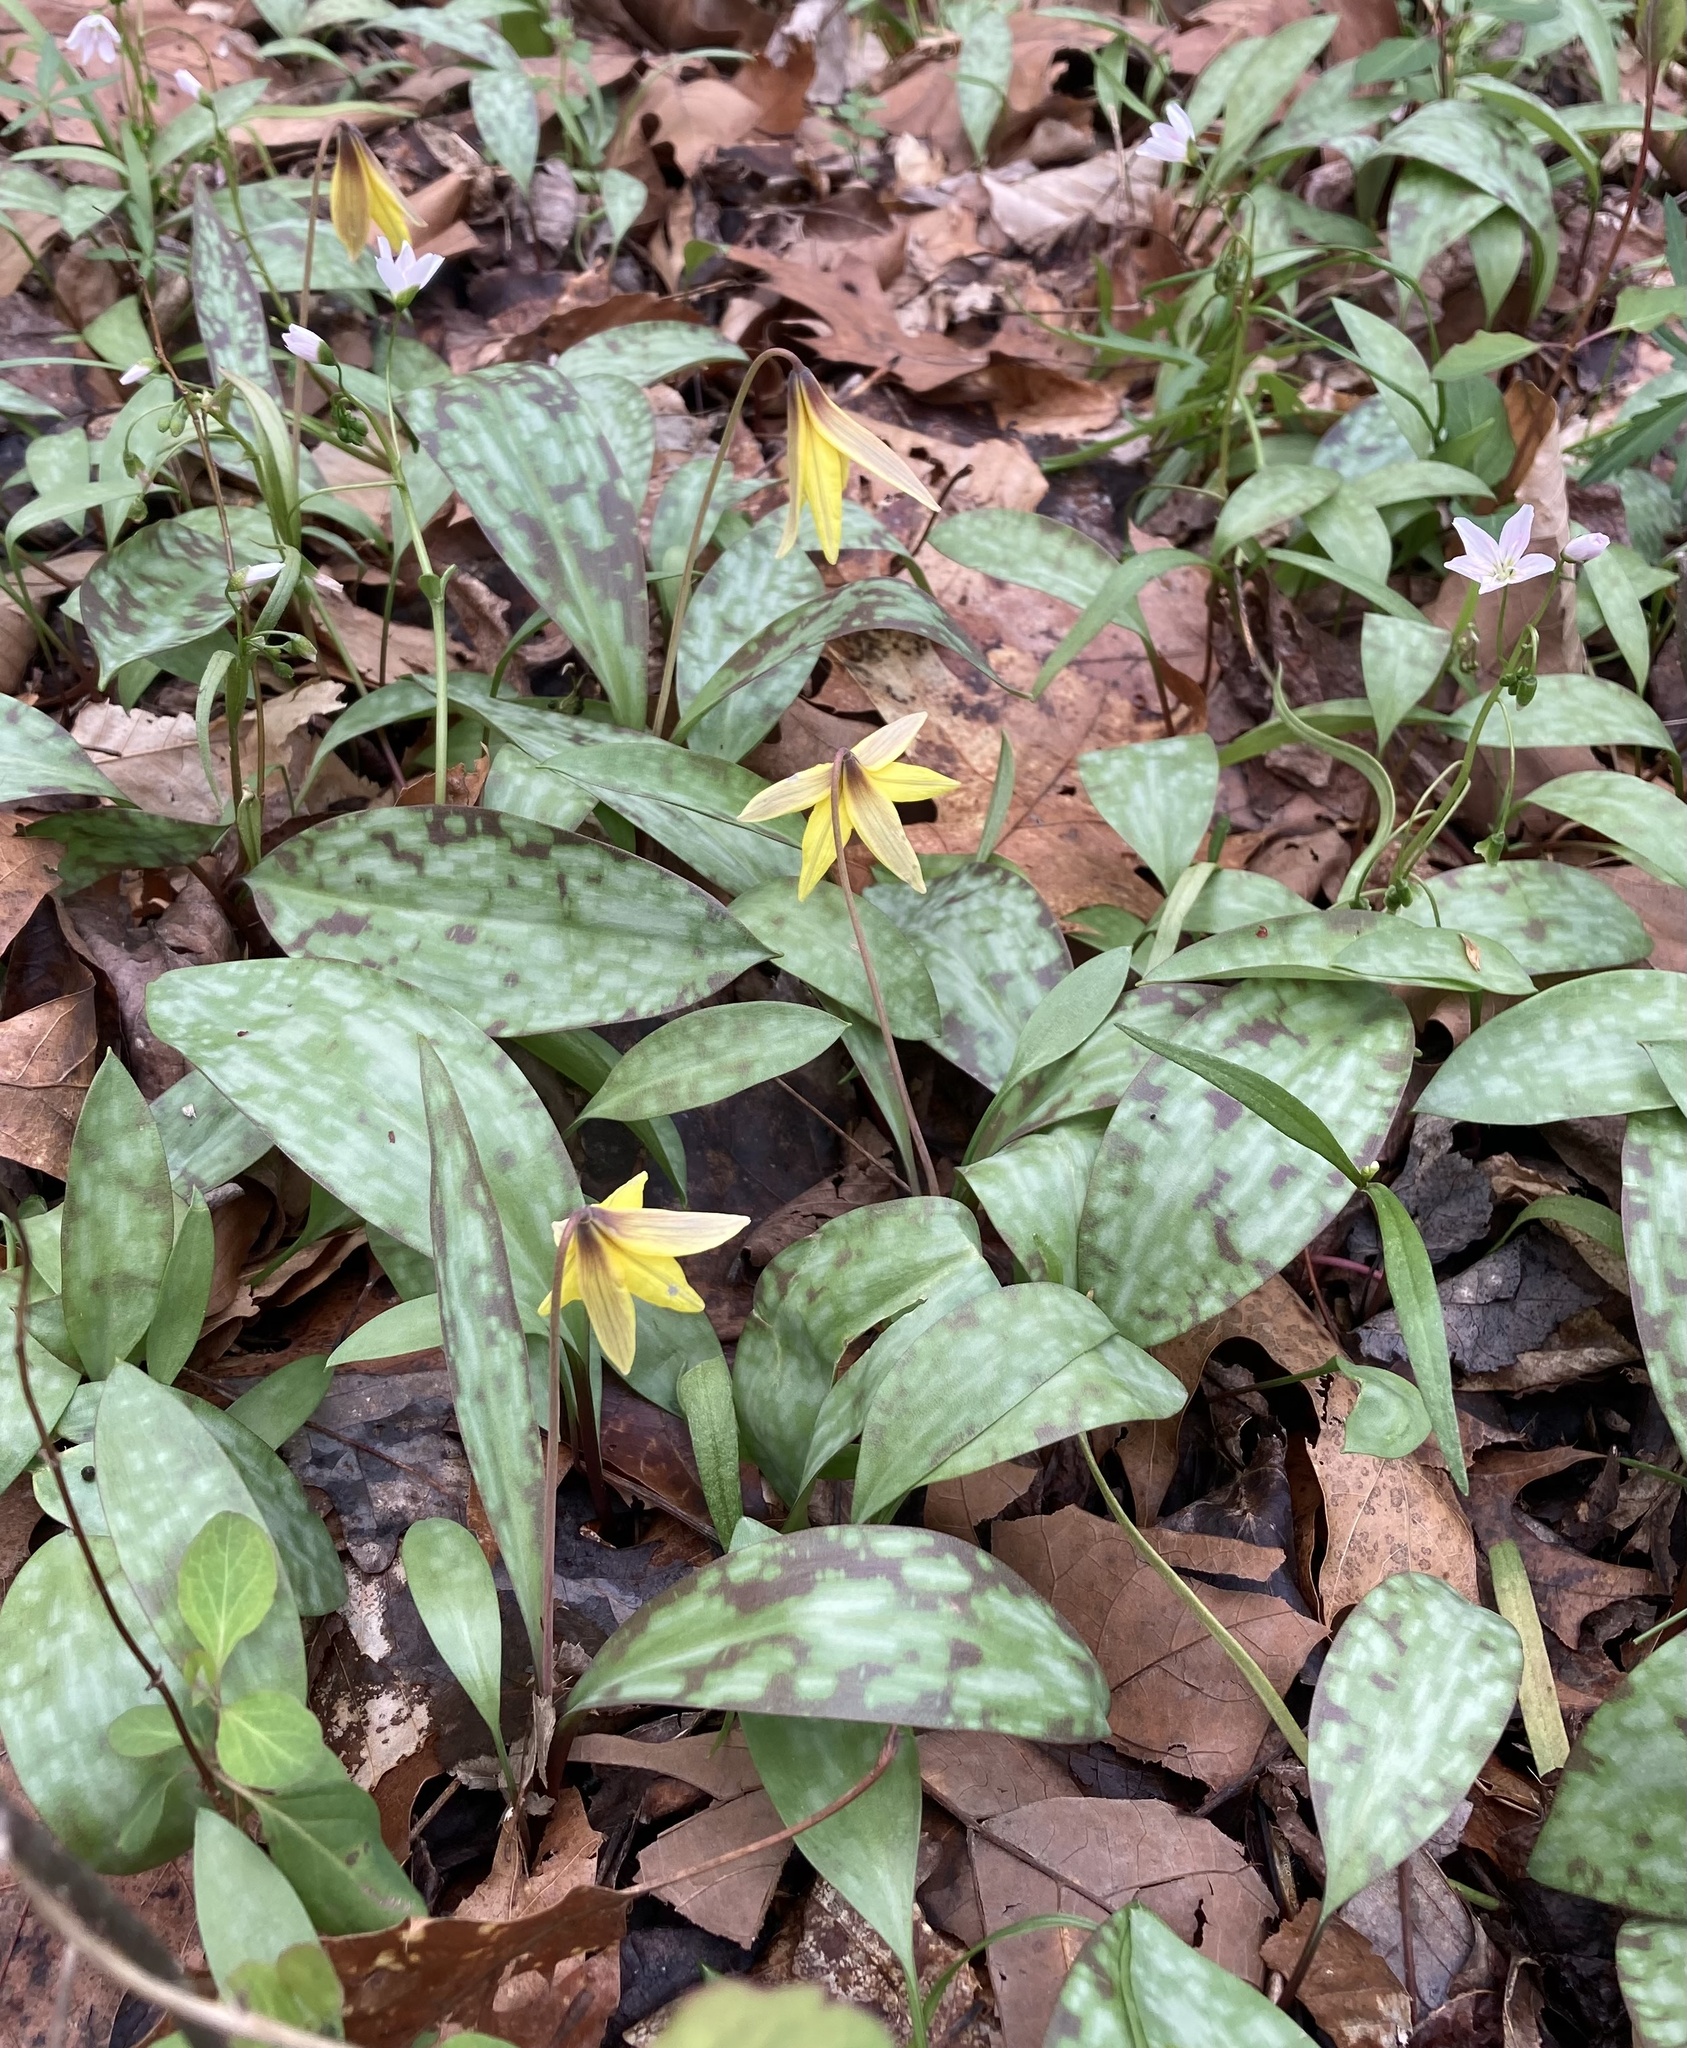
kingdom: Plantae
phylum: Tracheophyta
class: Liliopsida
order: Liliales
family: Liliaceae
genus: Erythronium
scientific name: Erythronium americanum
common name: Yellow adder's-tongue
